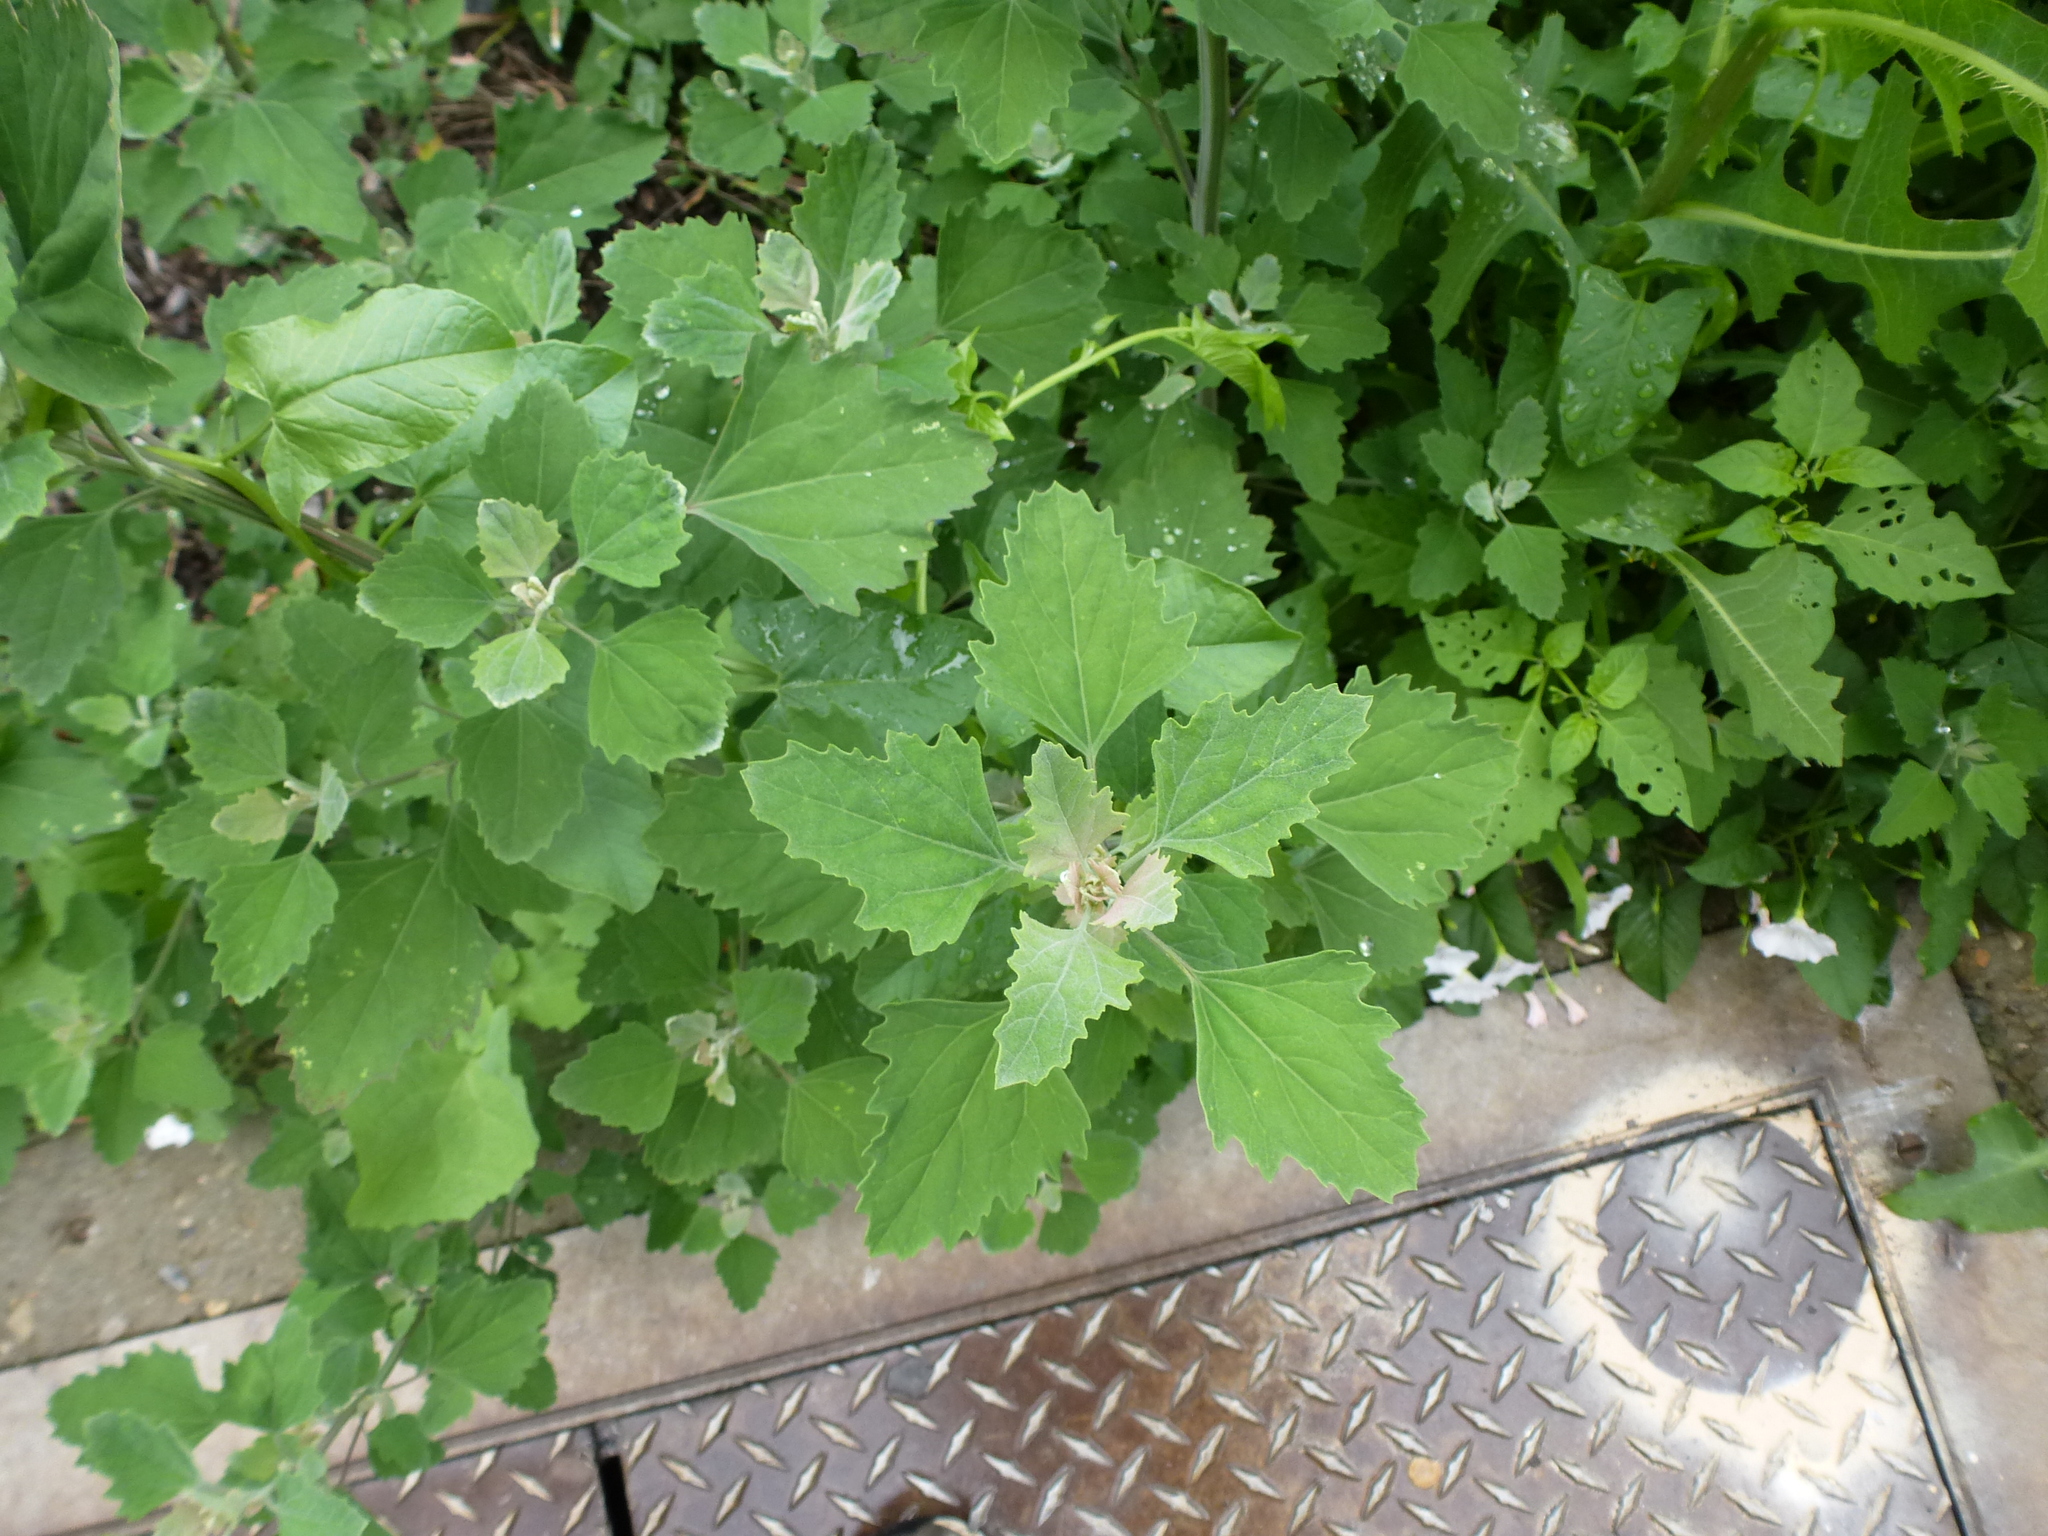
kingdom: Plantae
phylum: Tracheophyta
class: Magnoliopsida
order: Caryophyllales
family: Amaranthaceae
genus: Chenopodium
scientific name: Chenopodium album
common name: Fat-hen
